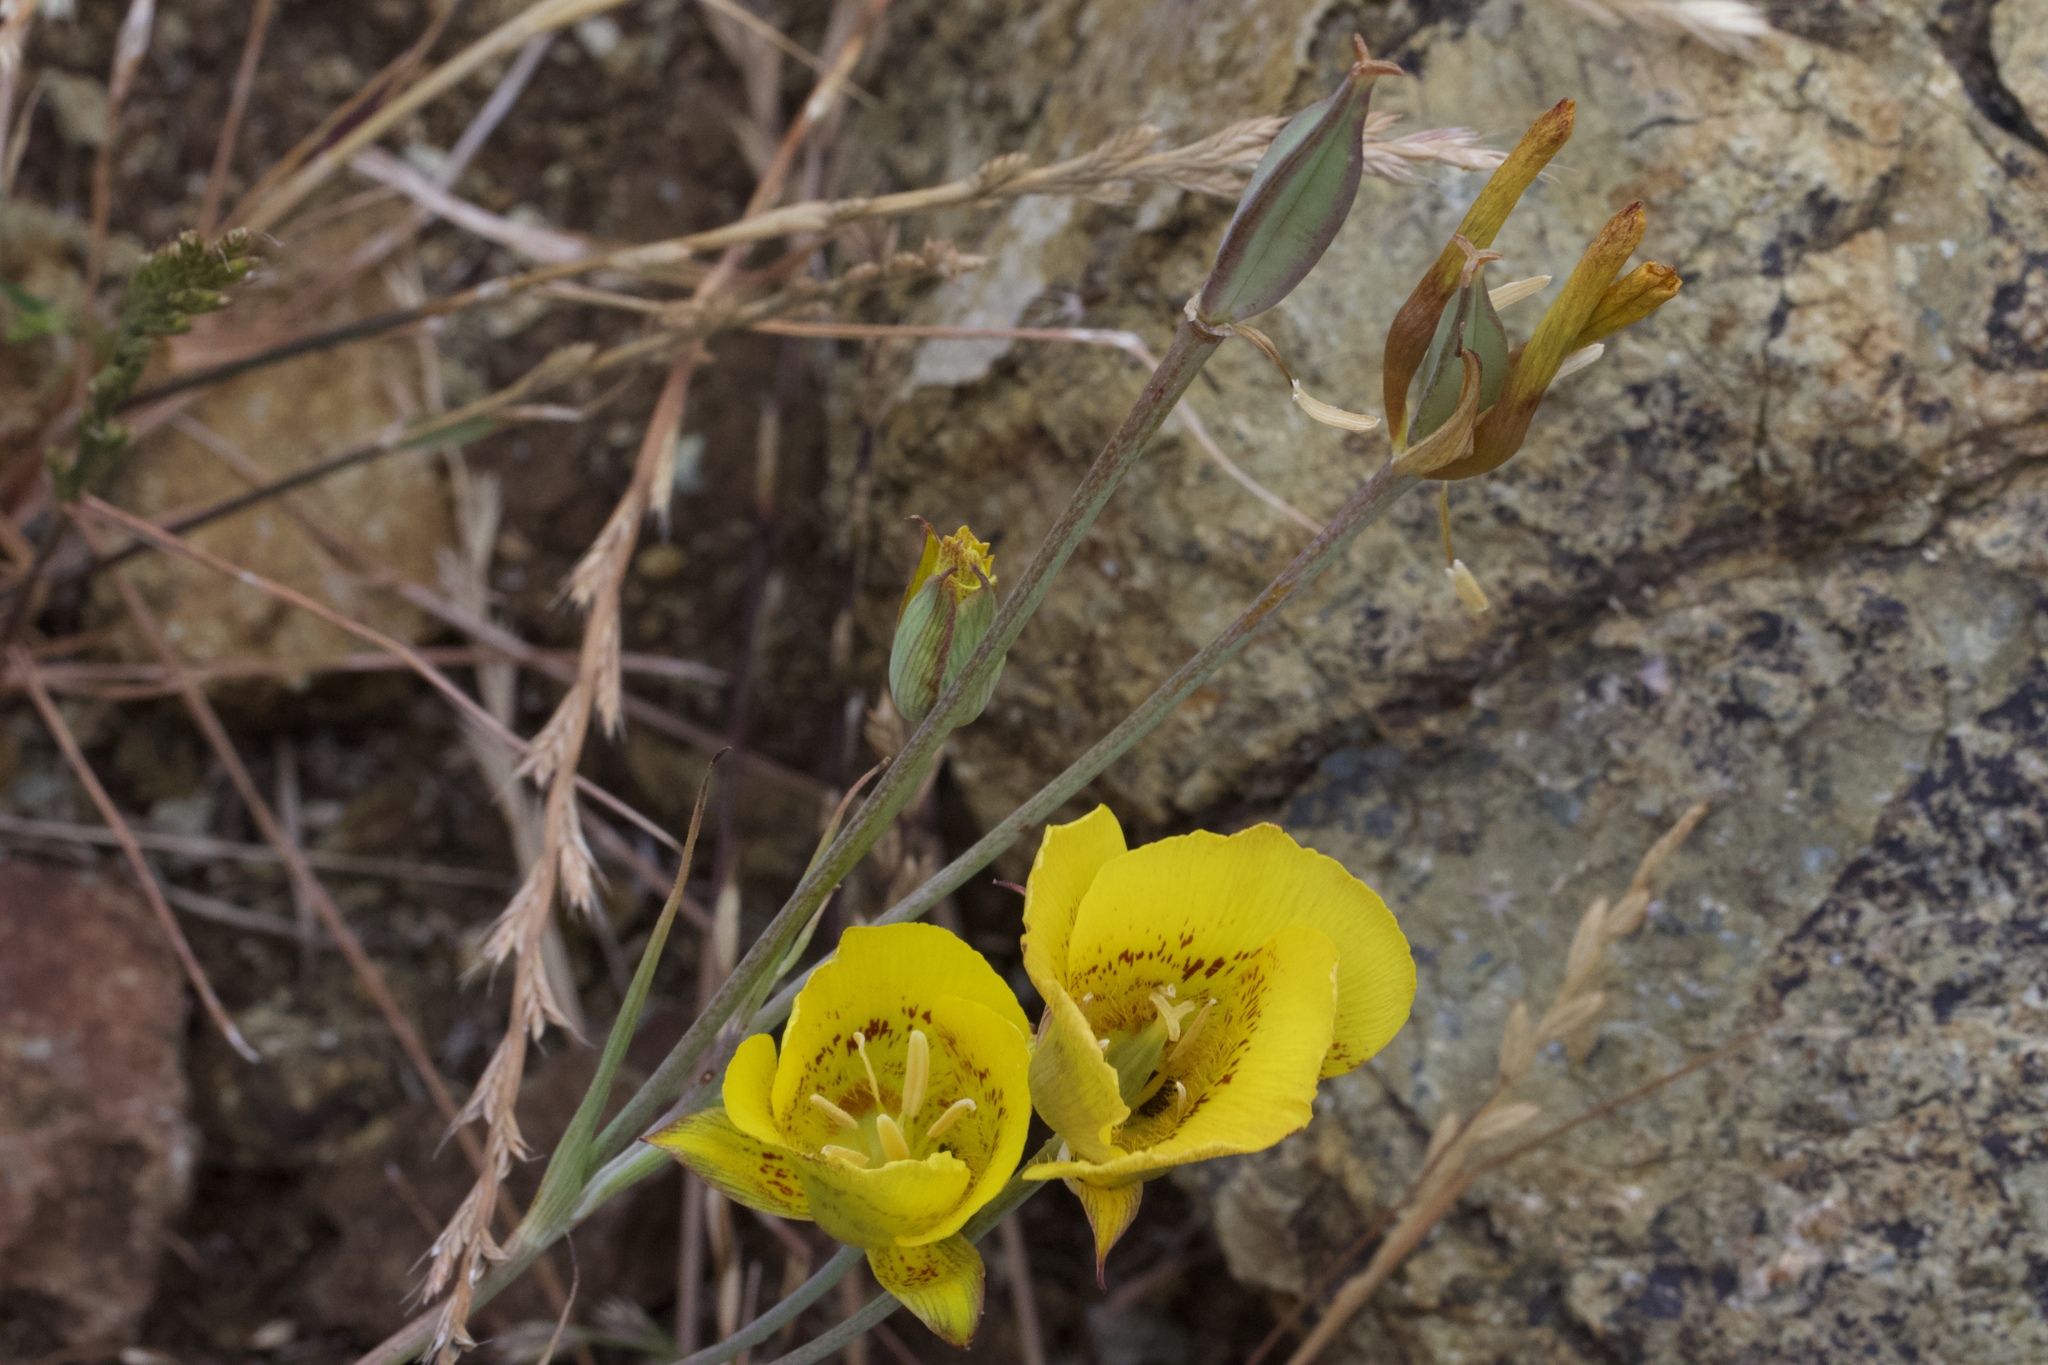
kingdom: Plantae
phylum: Tracheophyta
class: Liliopsida
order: Liliales
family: Liliaceae
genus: Calochortus
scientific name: Calochortus luteus
